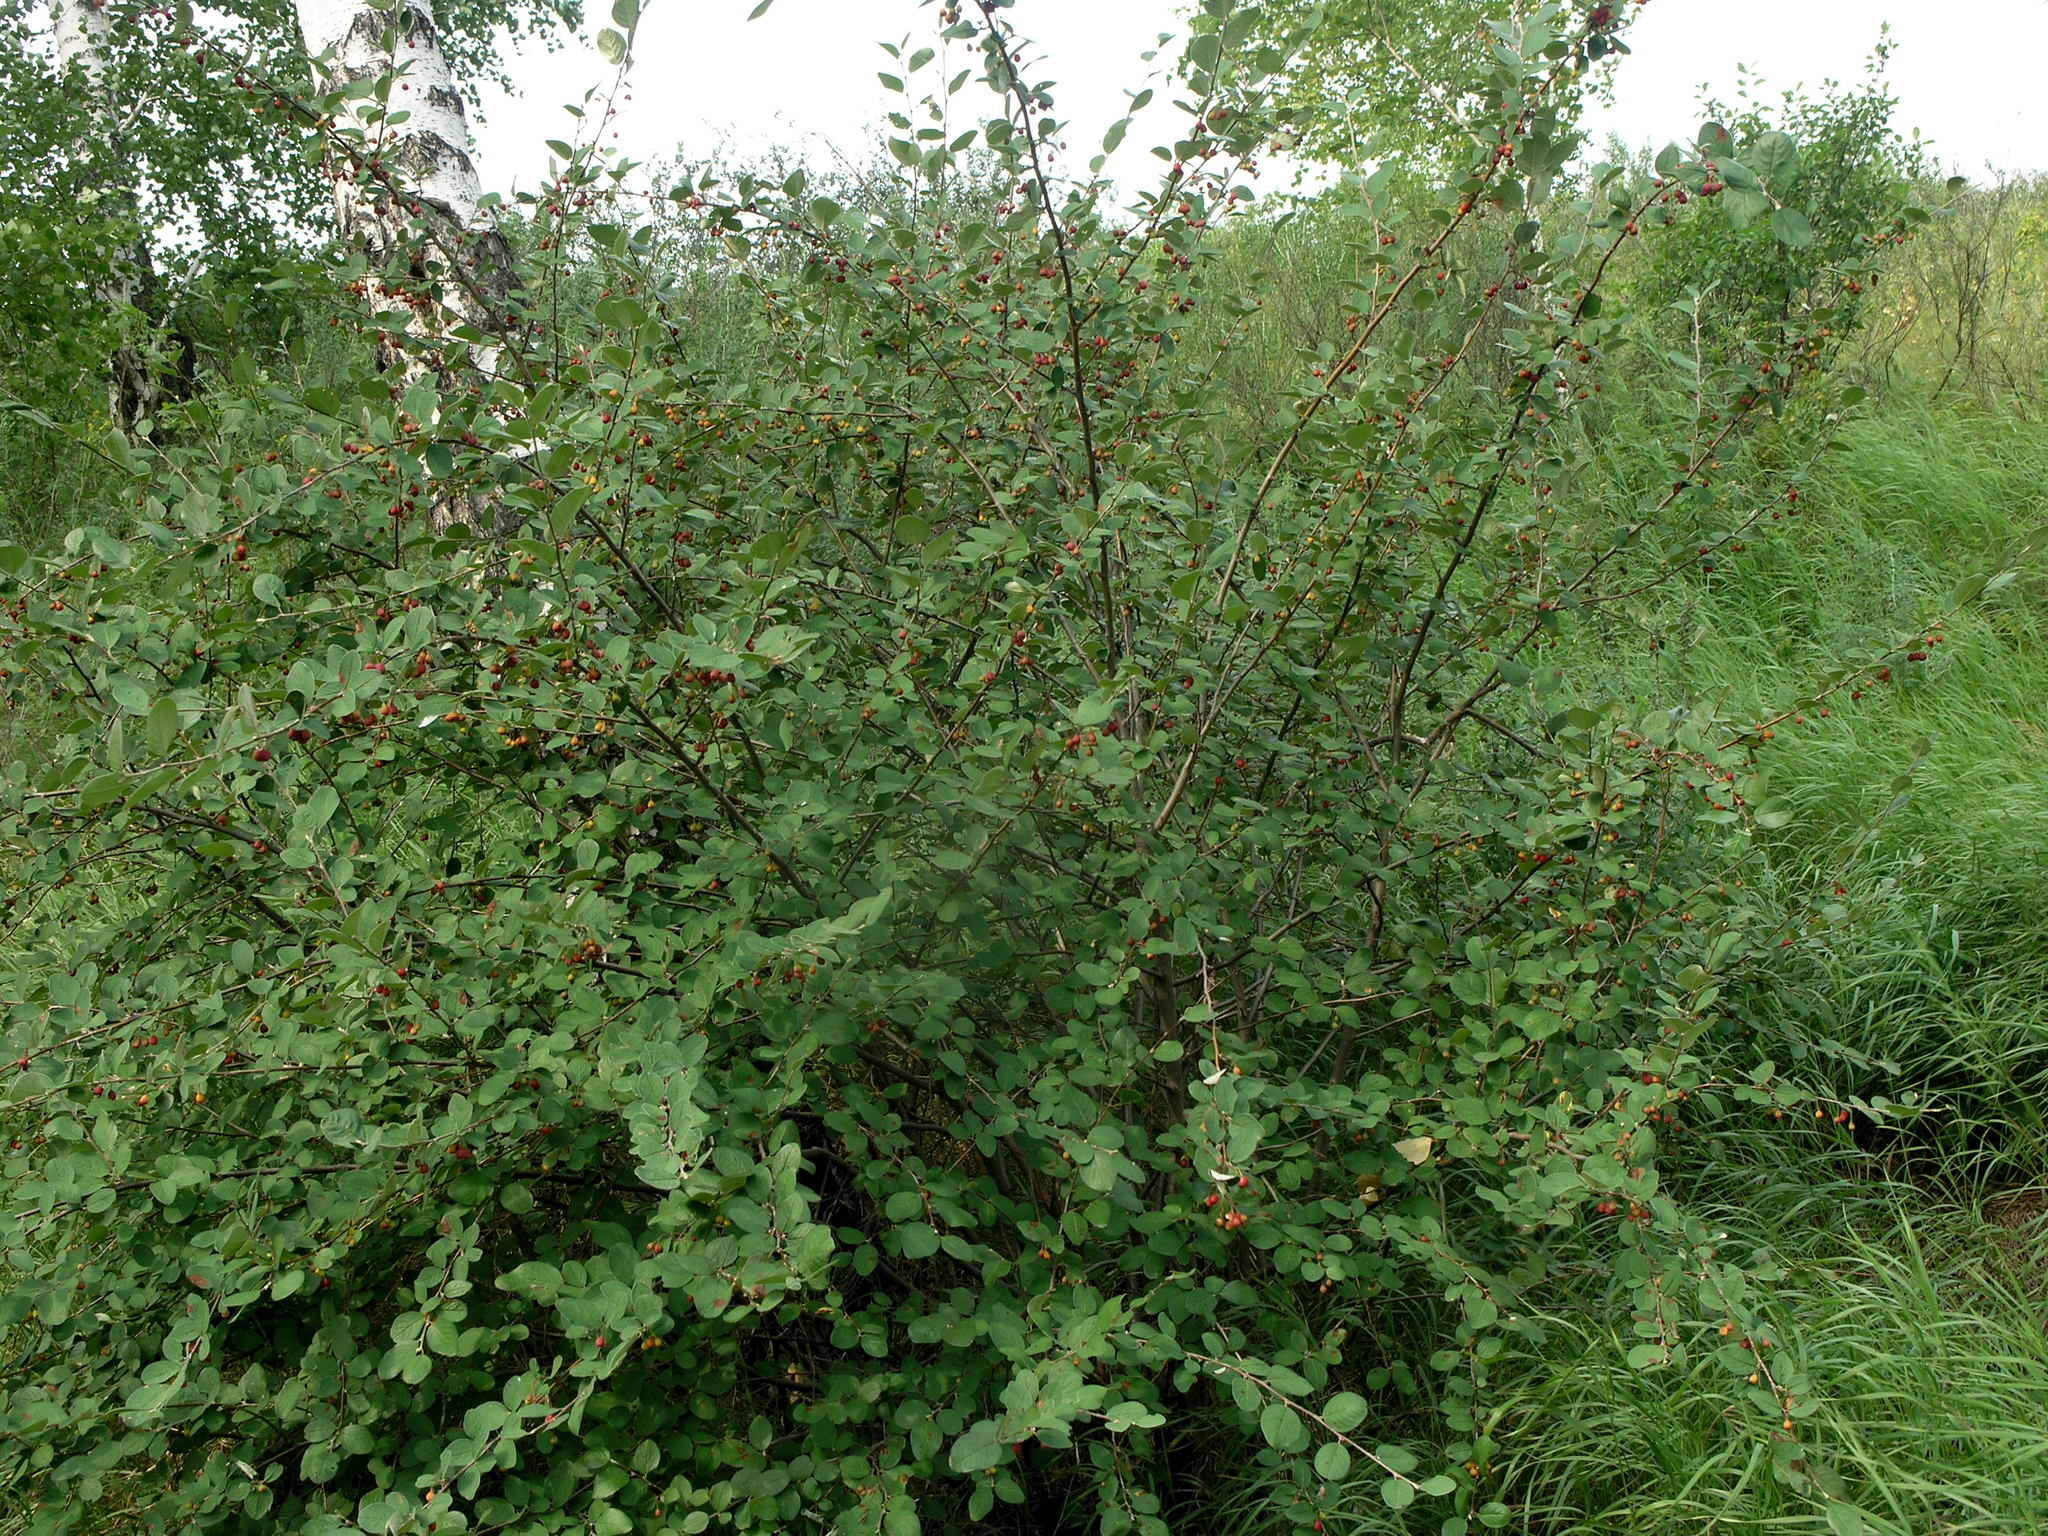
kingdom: Plantae
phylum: Tracheophyta
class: Magnoliopsida
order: Rosales
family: Rosaceae
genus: Cotoneaster
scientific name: Cotoneaster melanocarpus
